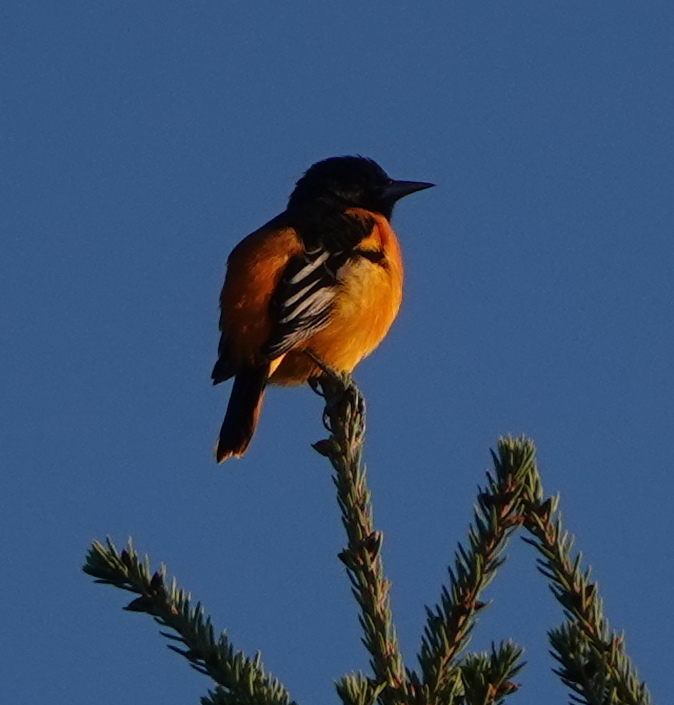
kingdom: Animalia
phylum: Chordata
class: Aves
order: Passeriformes
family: Icteridae
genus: Icterus
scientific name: Icterus galbula
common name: Baltimore oriole
